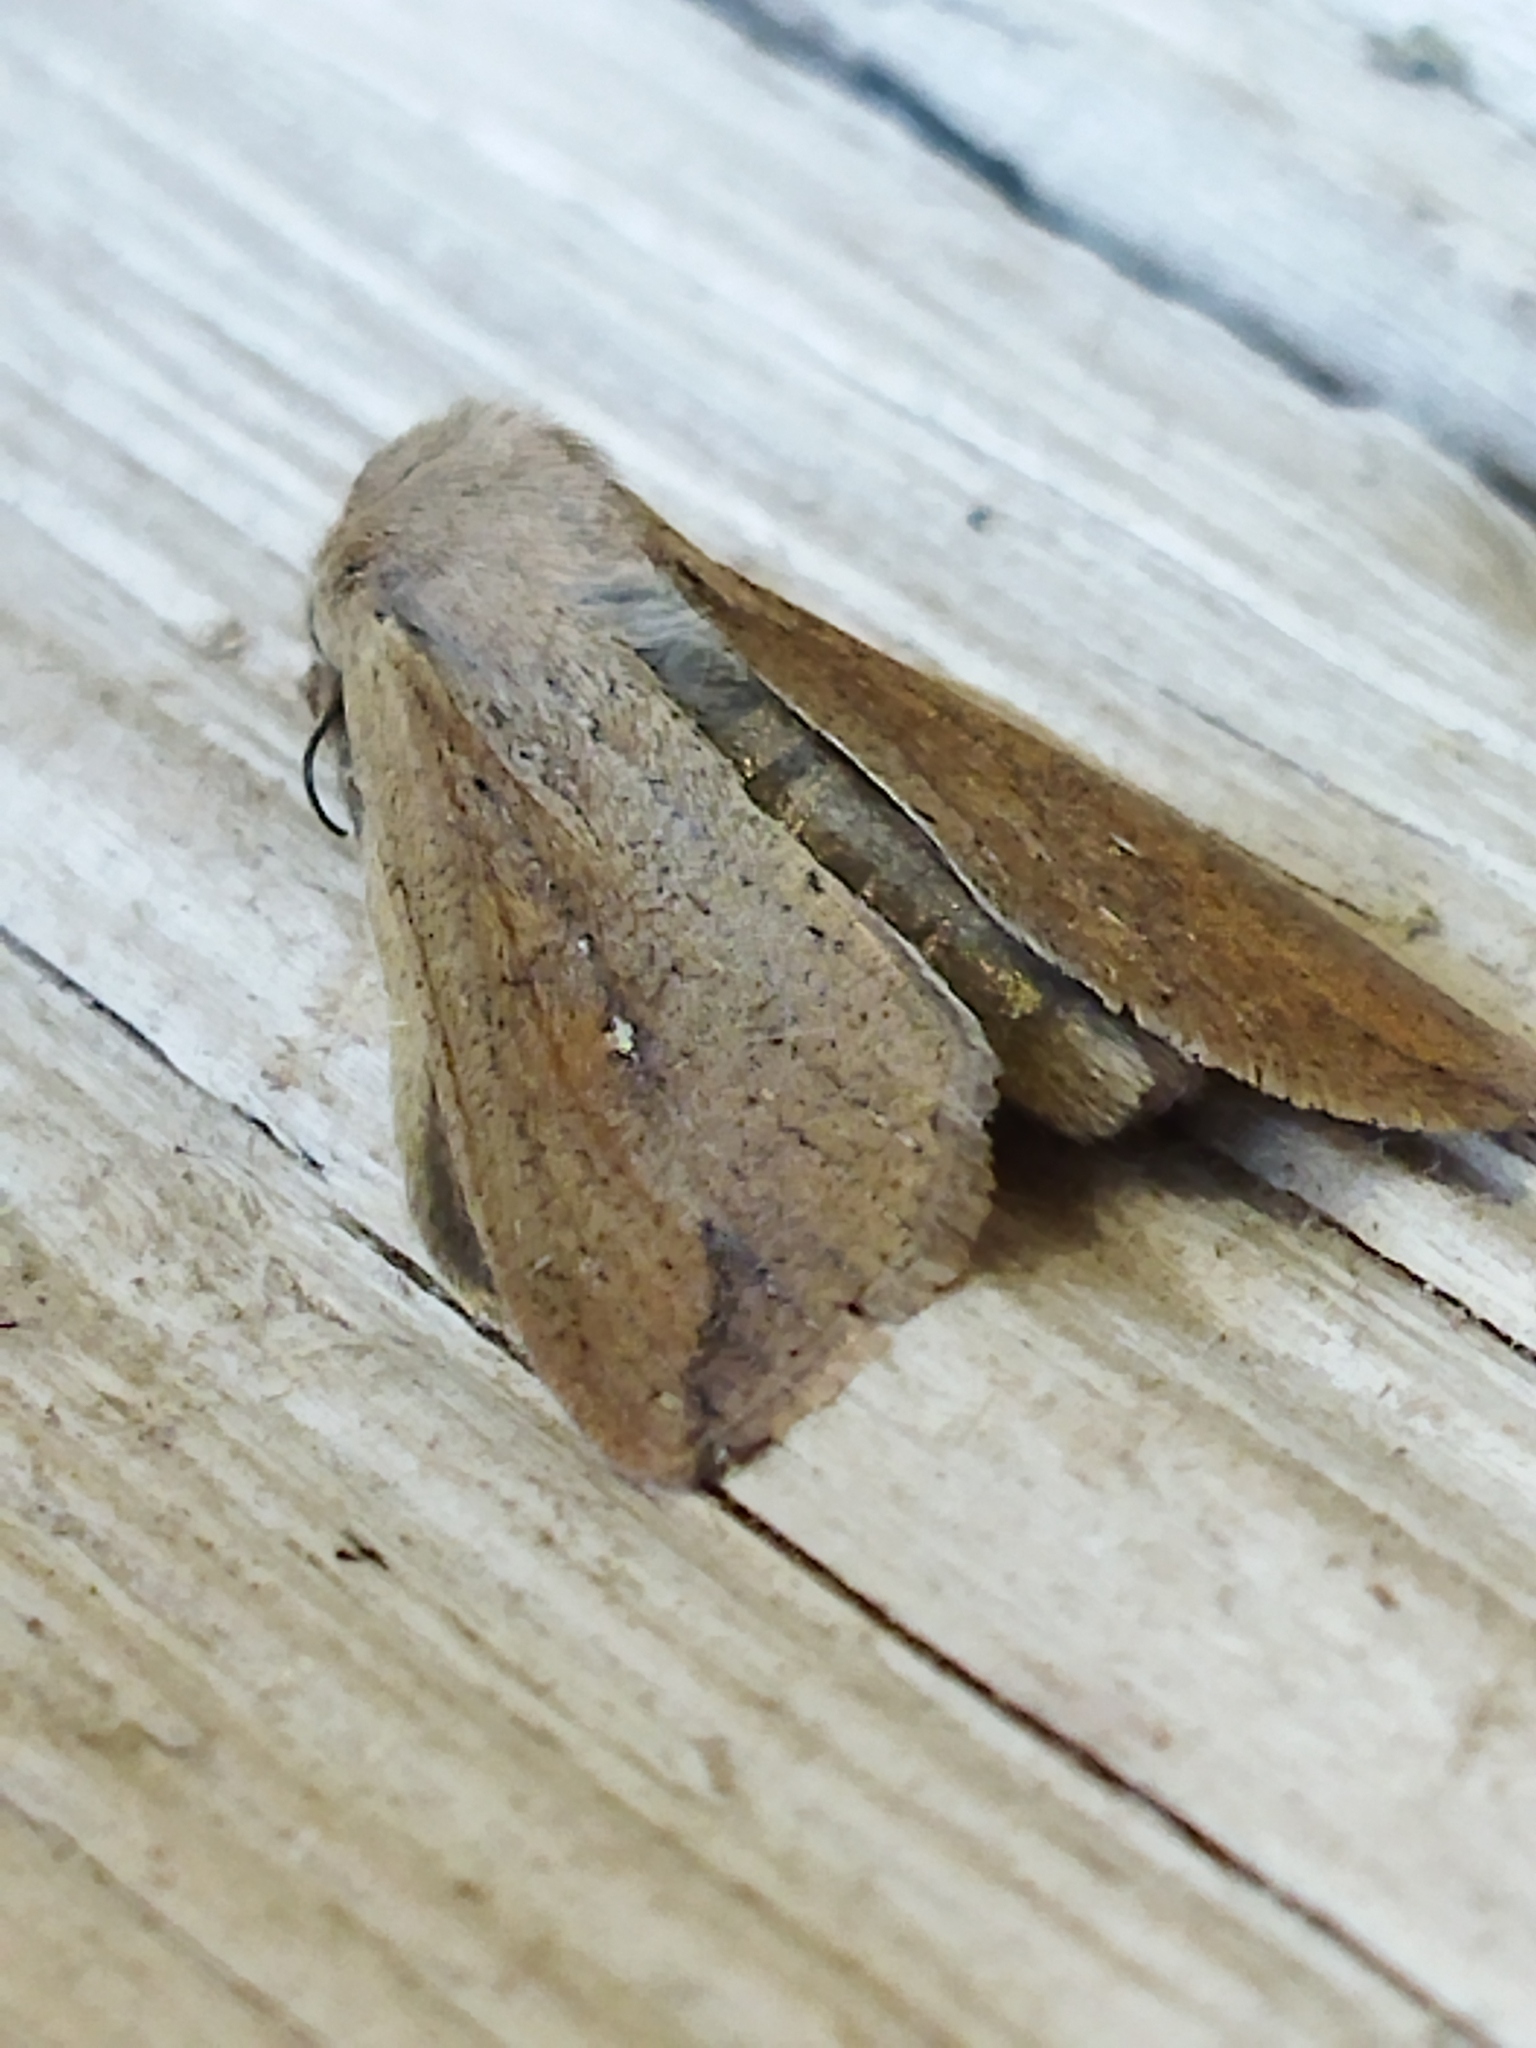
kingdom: Animalia
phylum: Arthropoda
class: Insecta
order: Lepidoptera
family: Noctuidae
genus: Mythimna
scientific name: Mythimna unipuncta
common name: White-speck
